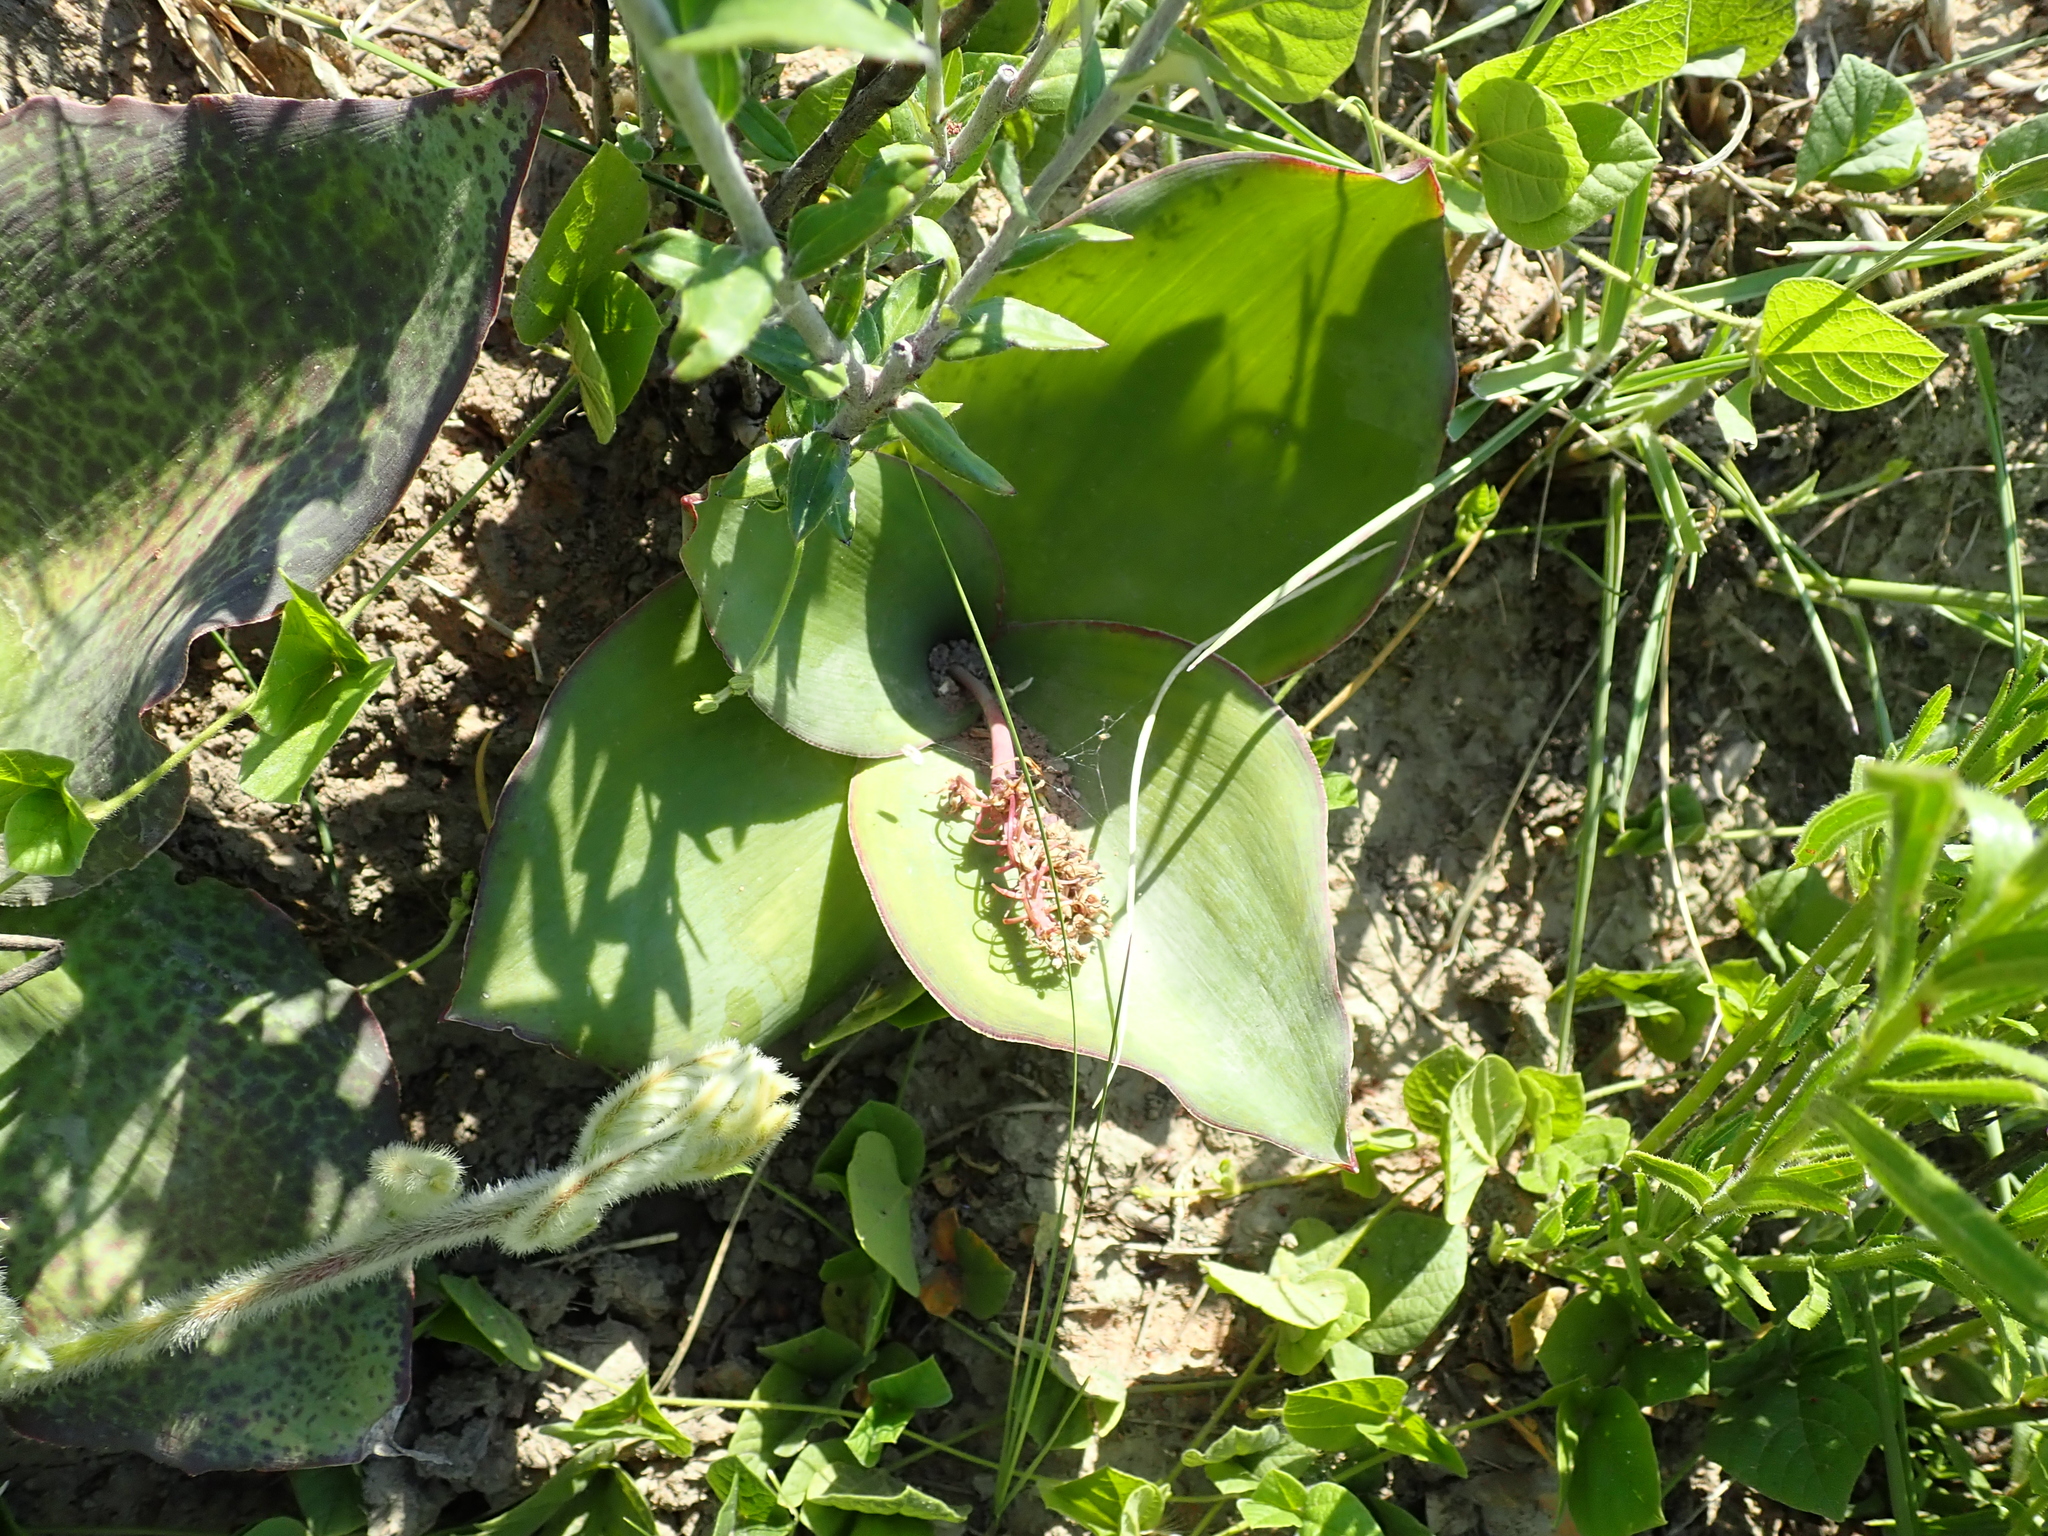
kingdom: Plantae
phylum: Tracheophyta
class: Liliopsida
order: Asparagales
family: Asparagaceae
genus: Ledebouria
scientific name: Ledebouria ovatifolia
